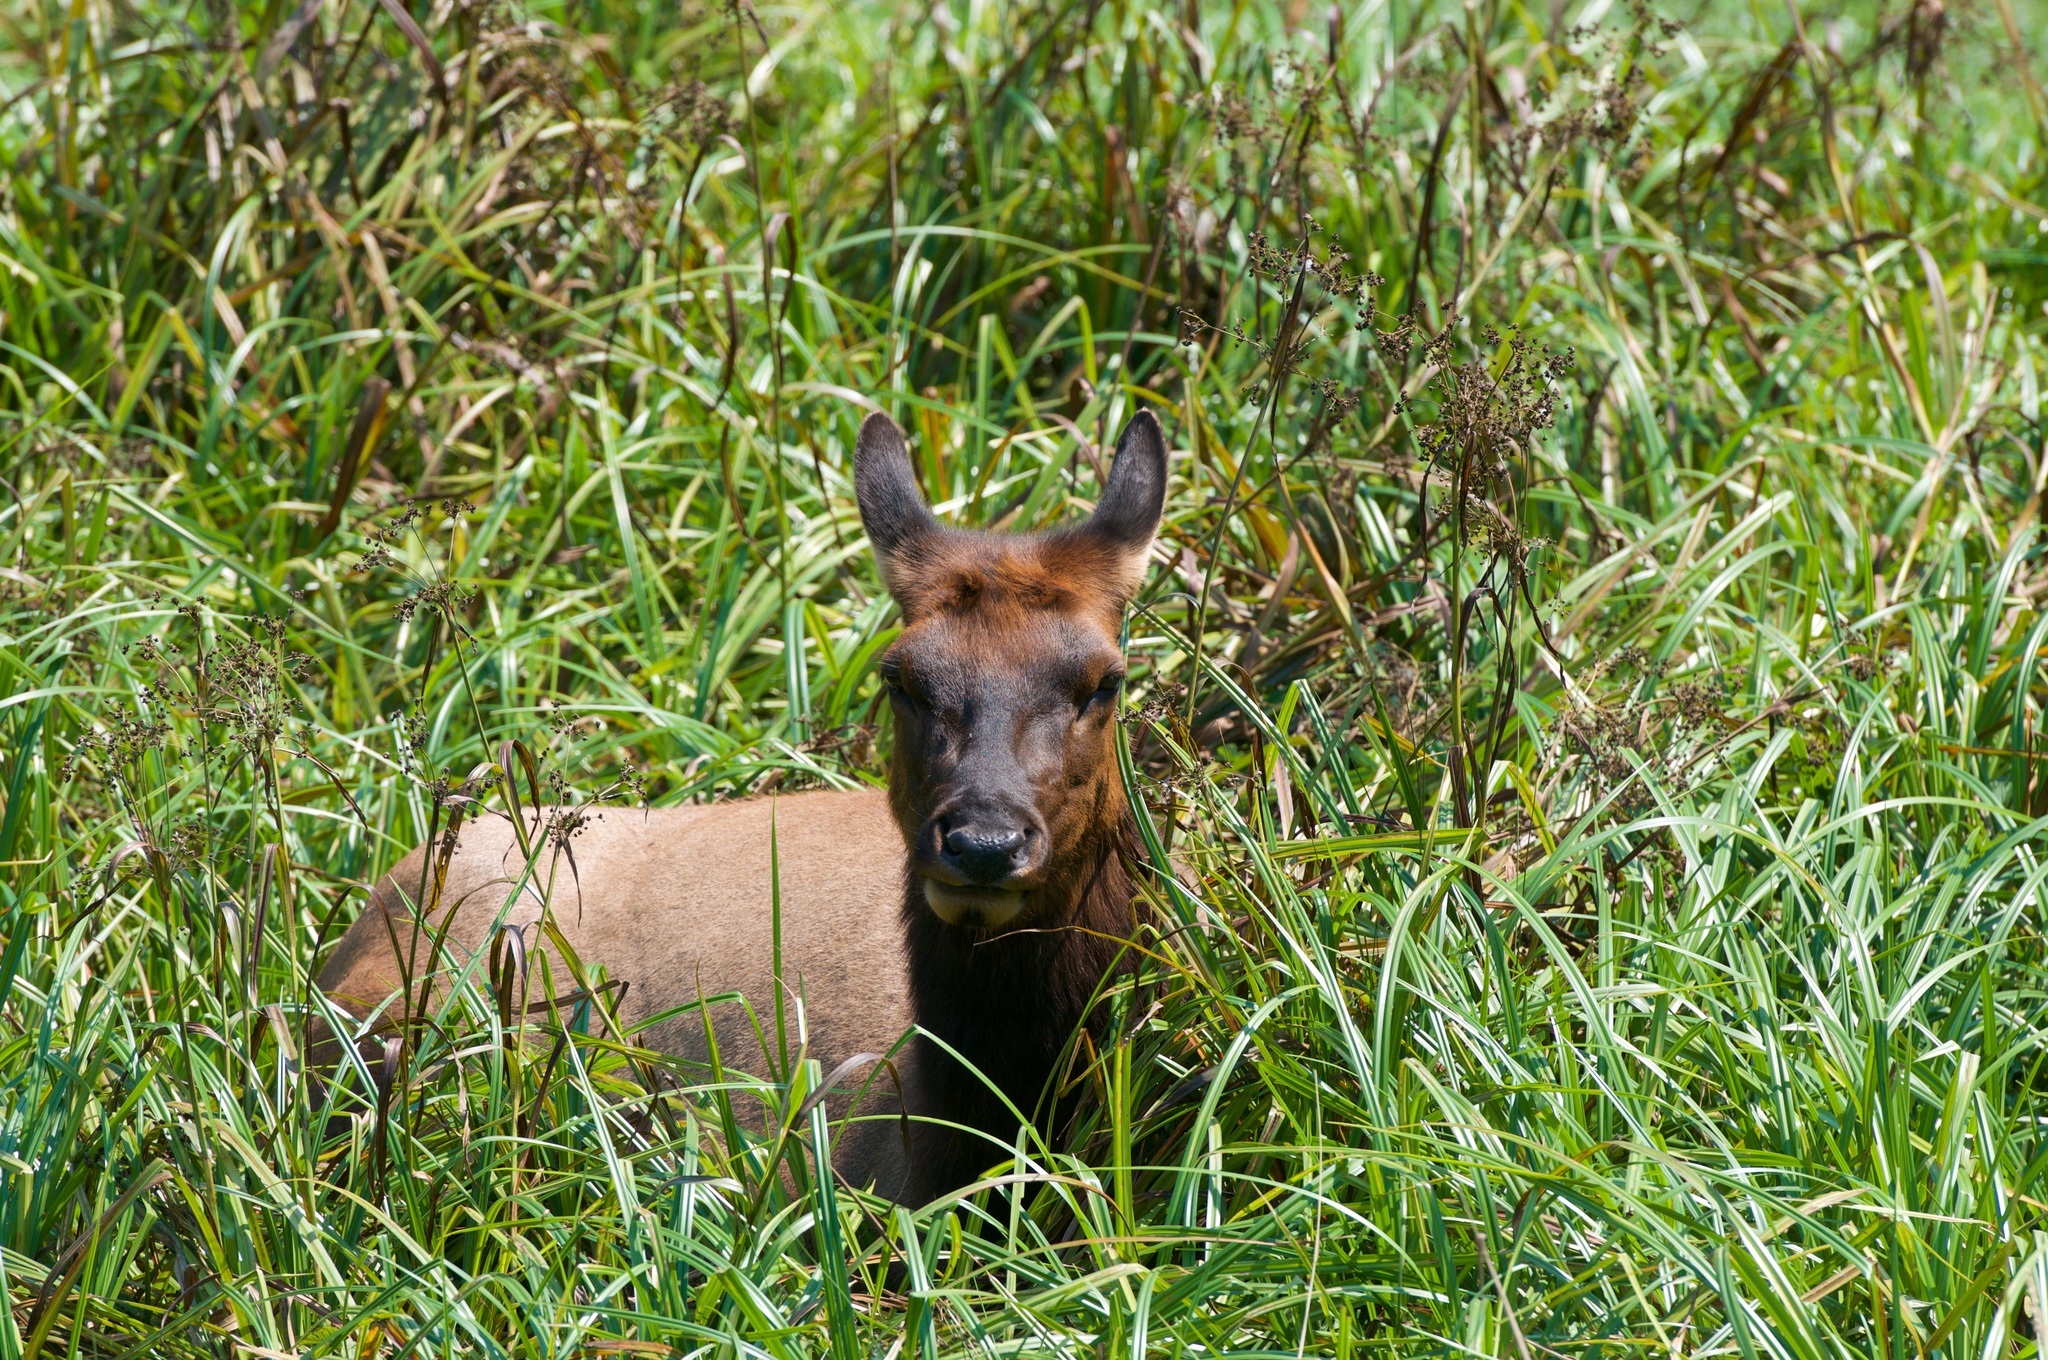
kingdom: Animalia
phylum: Chordata
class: Mammalia
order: Artiodactyla
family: Cervidae
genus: Cervus
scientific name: Cervus elaphus
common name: Red deer
